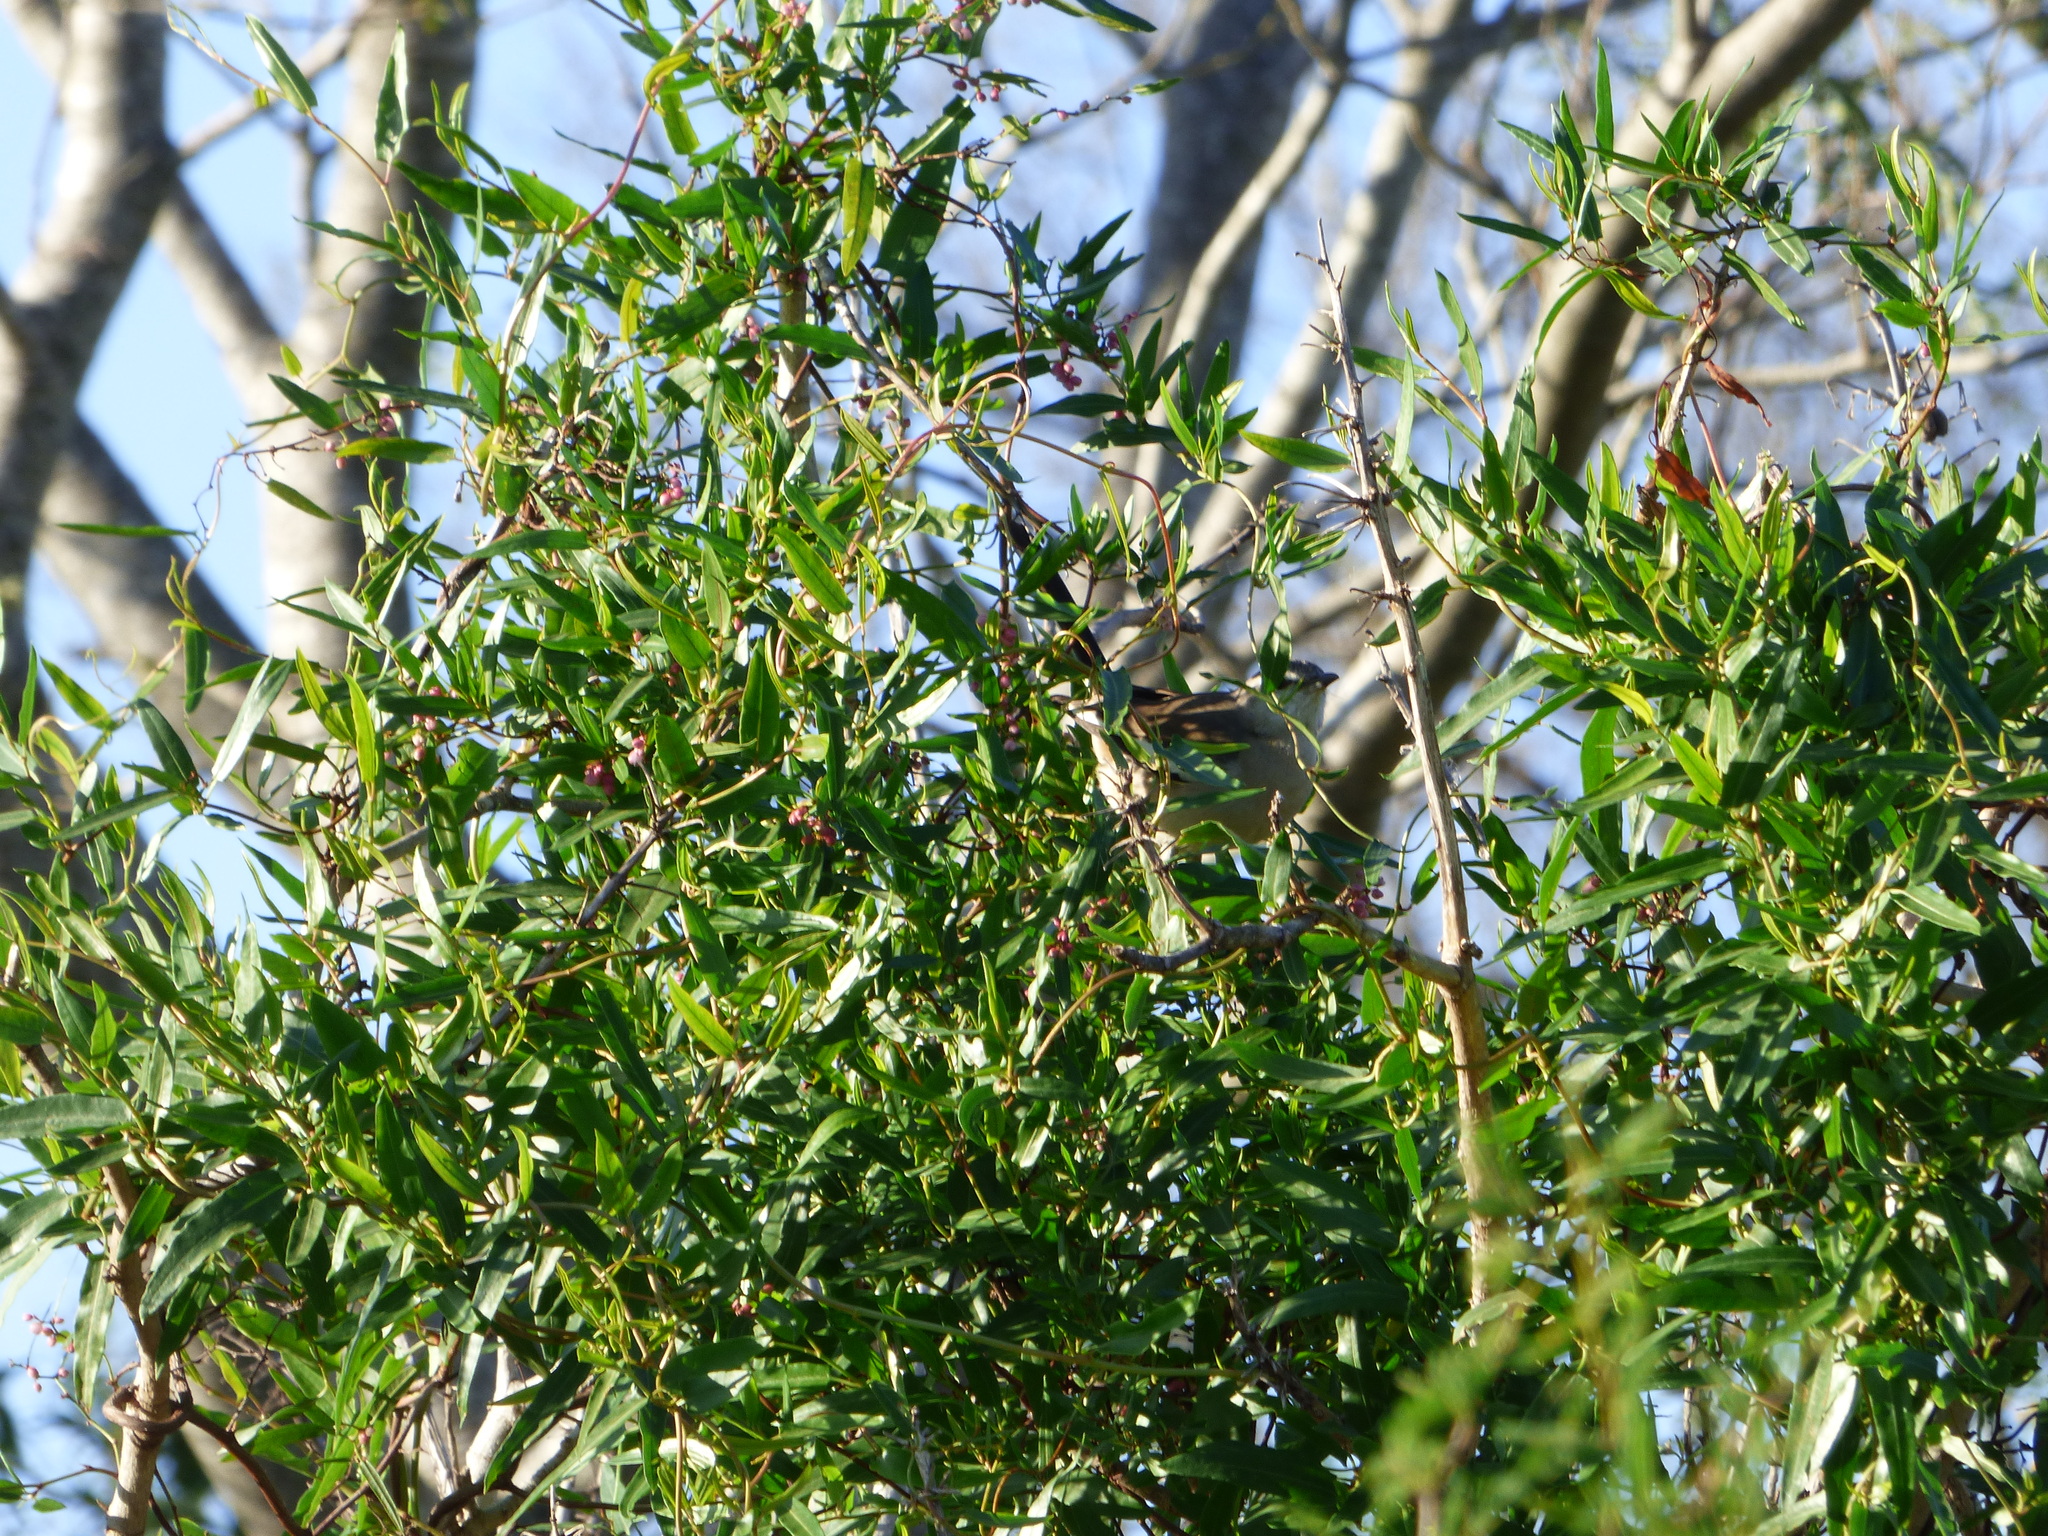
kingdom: Animalia
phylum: Chordata
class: Aves
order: Passeriformes
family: Mimidae
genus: Mimus
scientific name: Mimus triurus
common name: White-banded mockingbird
